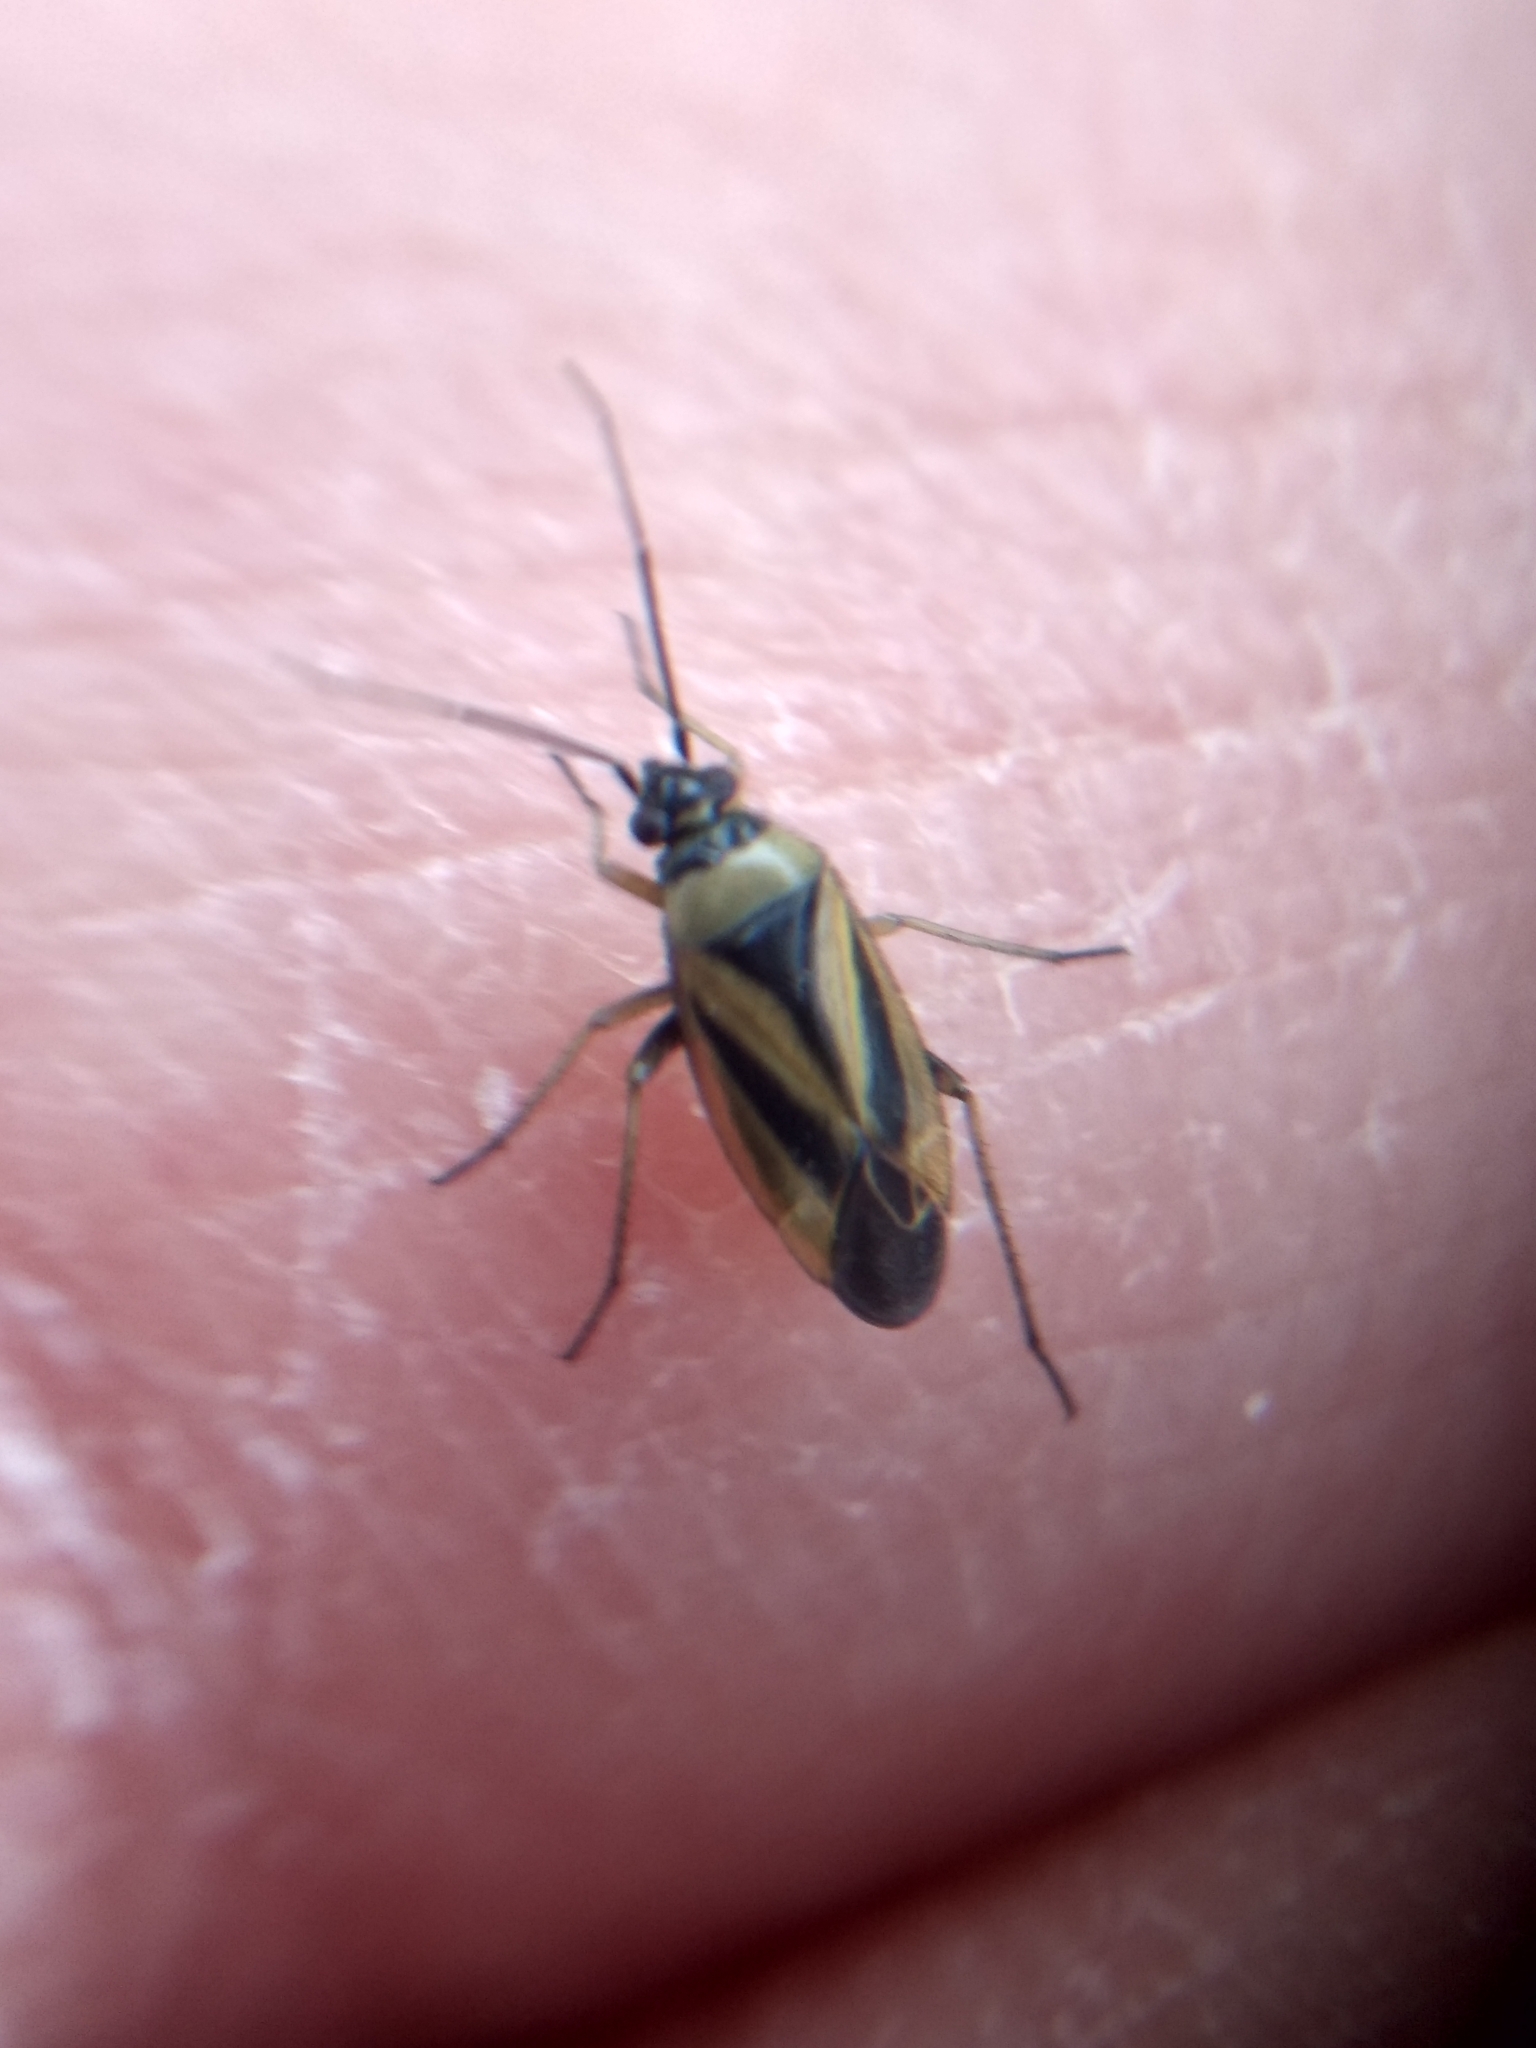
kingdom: Animalia
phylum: Arthropoda
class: Insecta
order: Hemiptera
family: Miridae
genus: Plagiognathus
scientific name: Plagiognathus moerens
